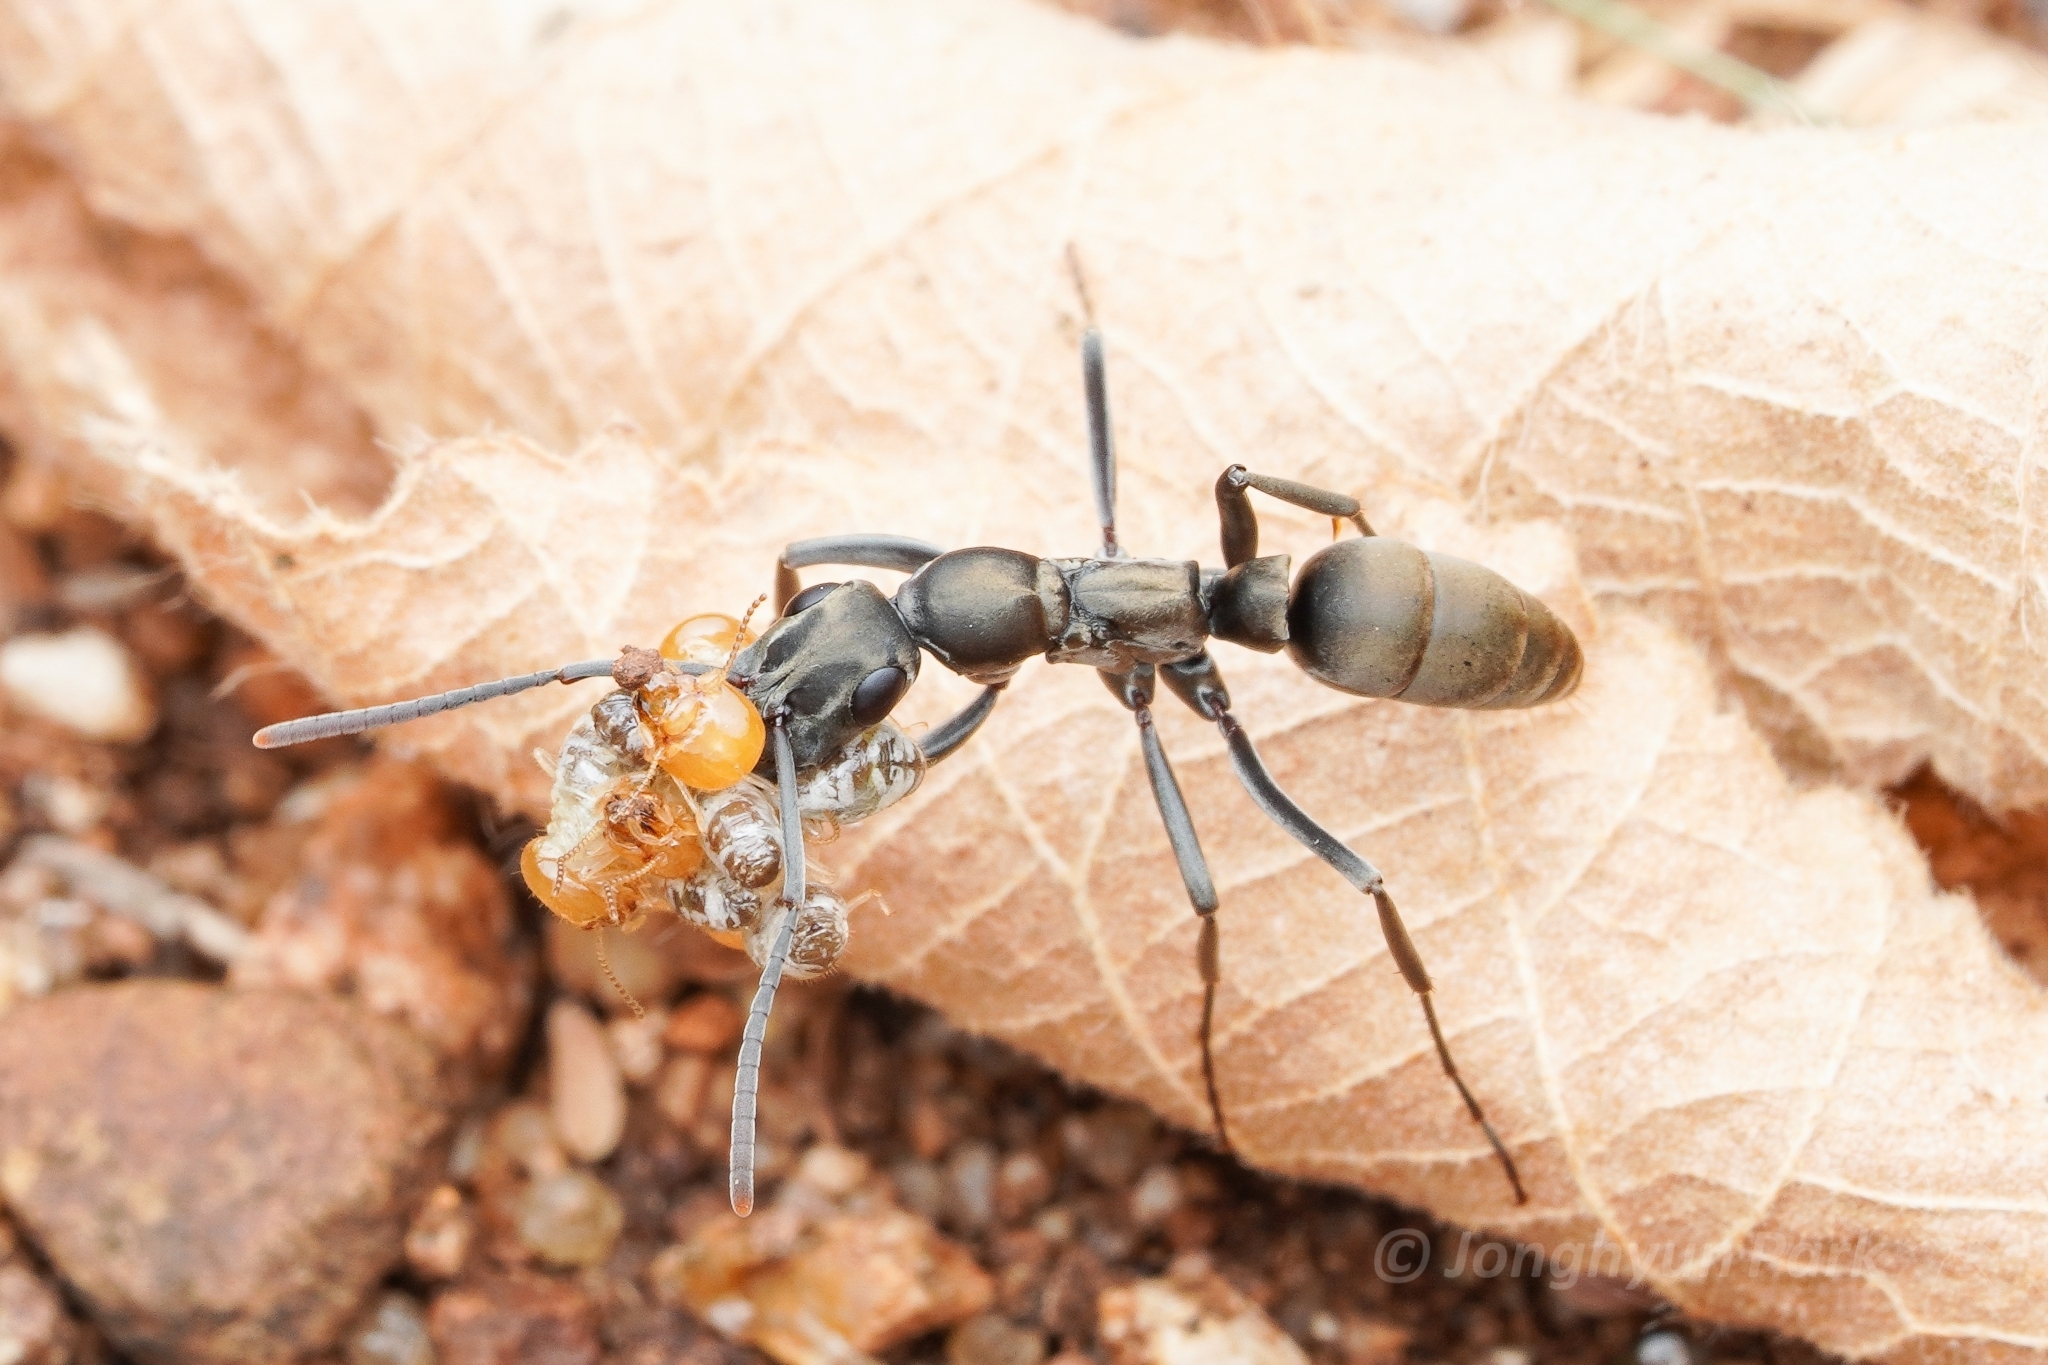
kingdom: Animalia
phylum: Arthropoda
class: Insecta
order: Hymenoptera
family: Formicidae
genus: Bothroponera
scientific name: Bothroponera berthoudi
